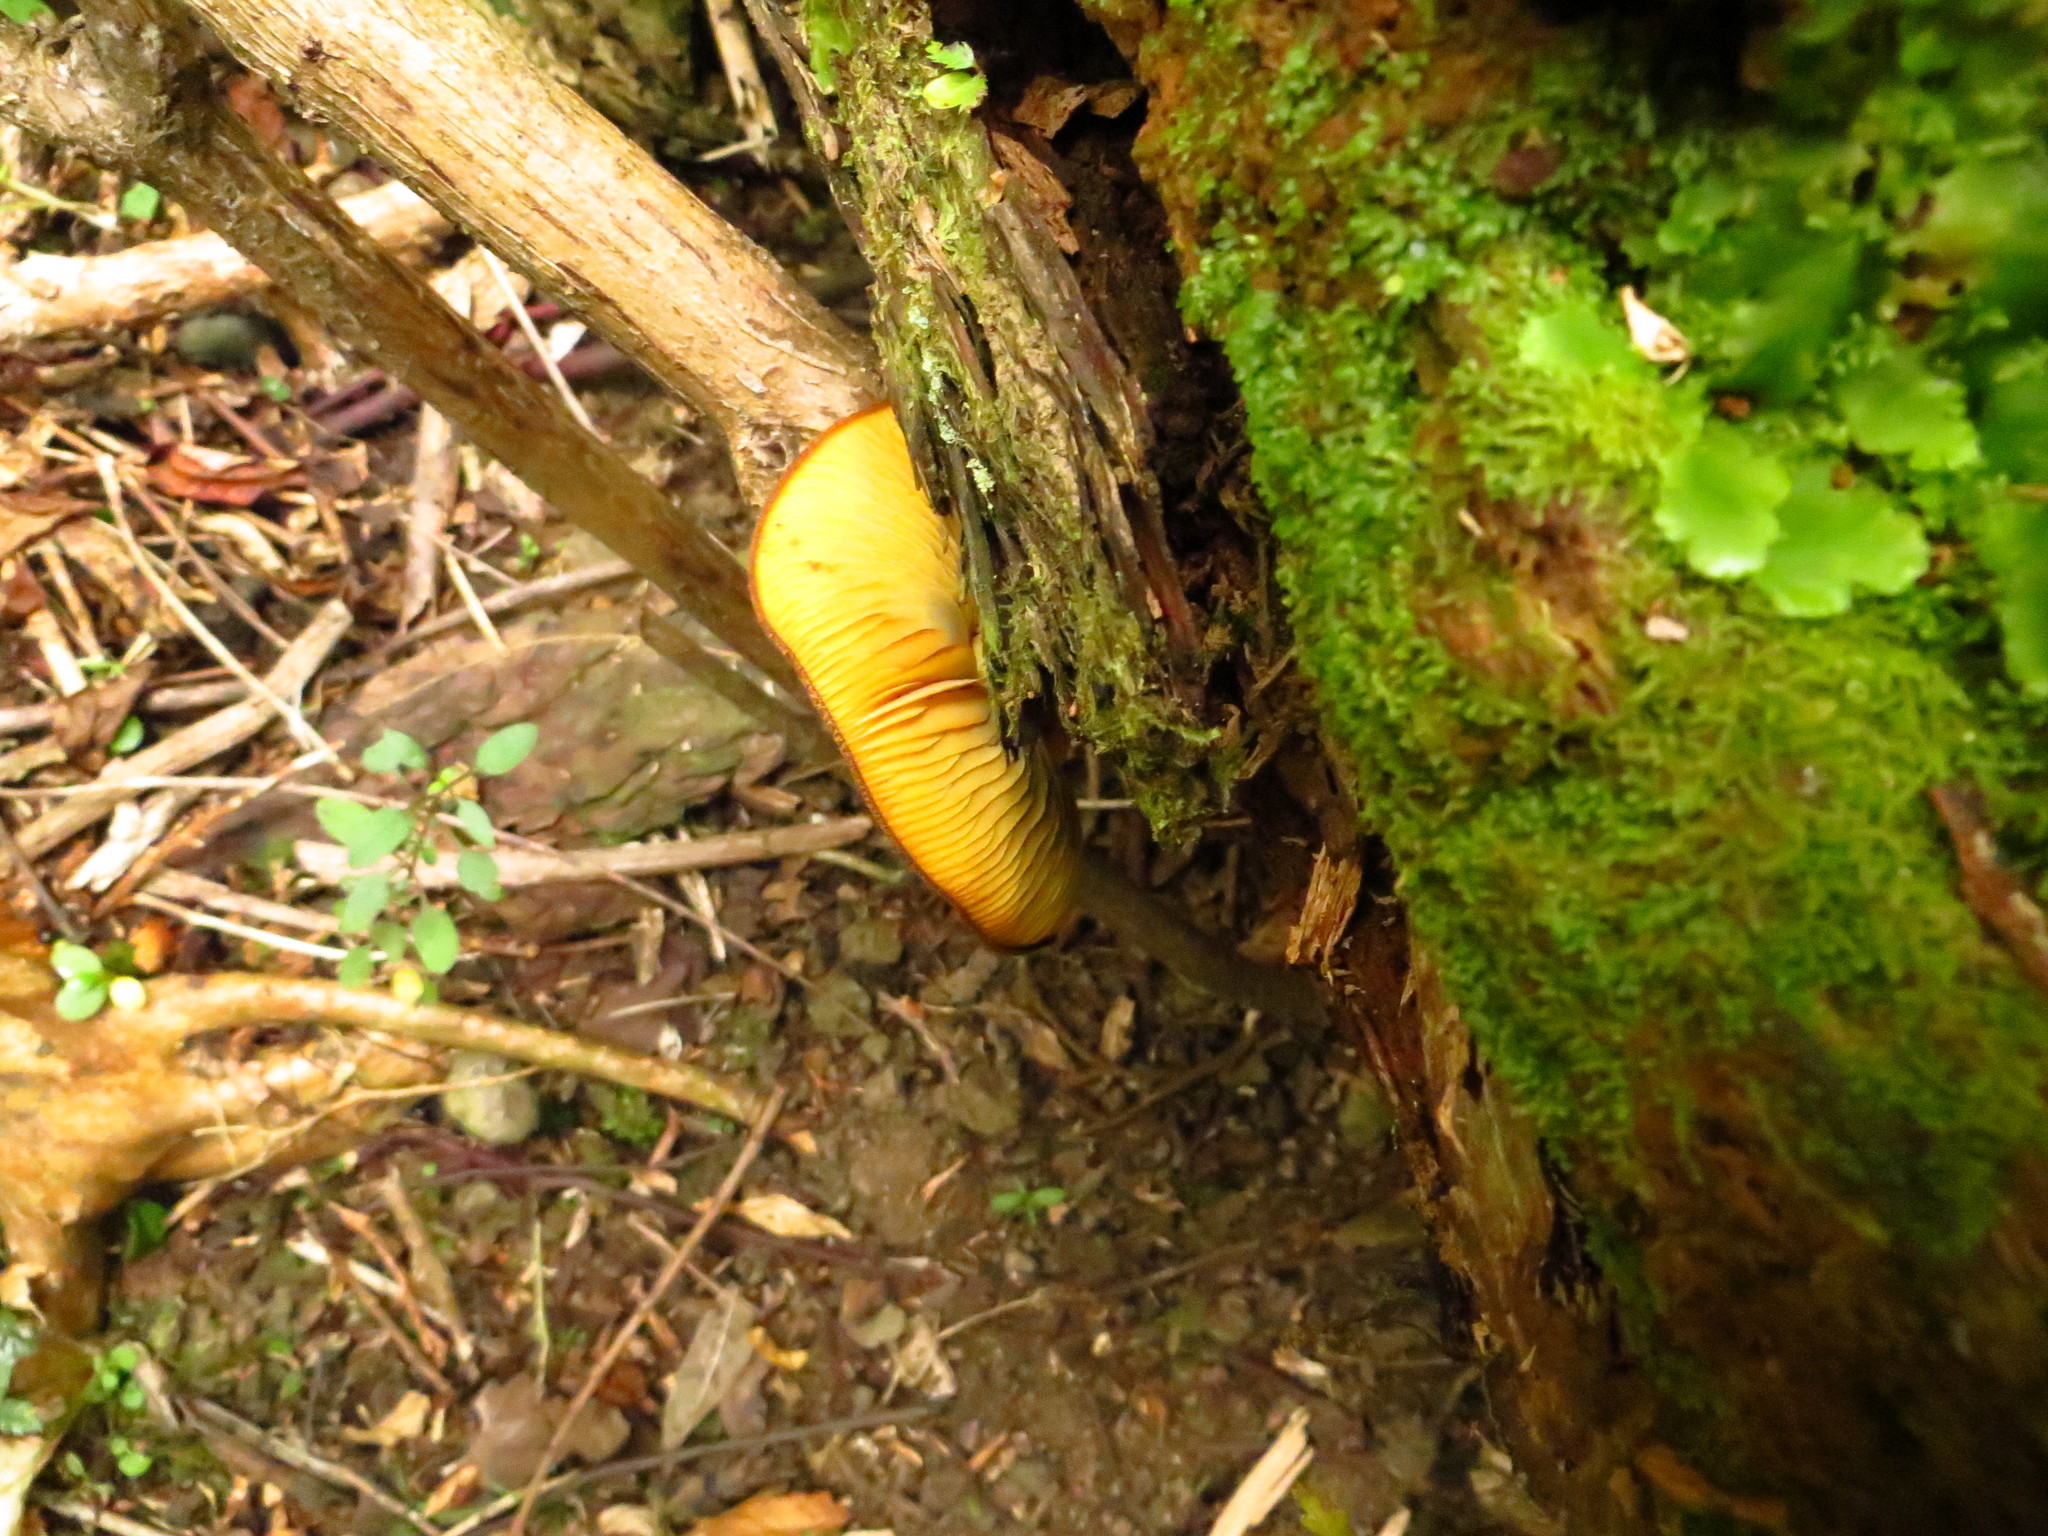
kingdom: Fungi
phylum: Basidiomycota
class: Agaricomycetes
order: Agaricales
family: Tricholomataceae
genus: Tricholomopsis
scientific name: Tricholomopsis ornaticeps
